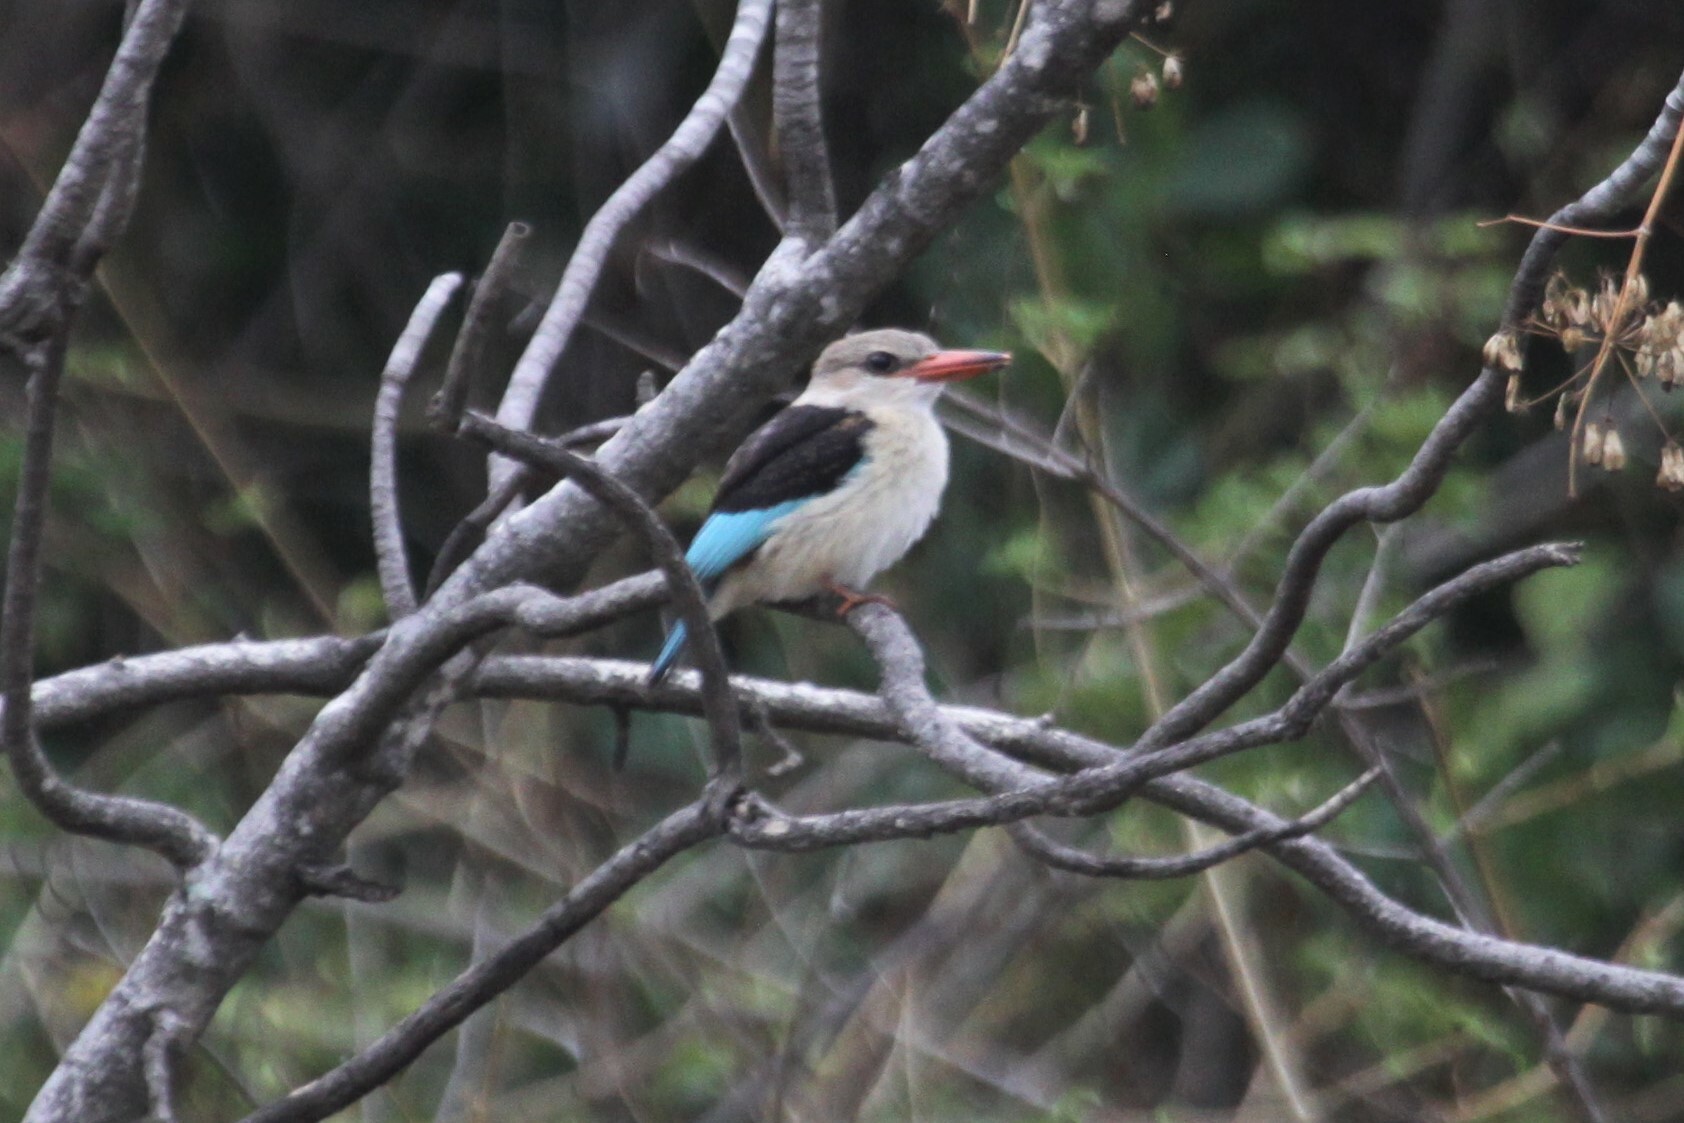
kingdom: Animalia
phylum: Chordata
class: Aves
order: Coraciiformes
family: Alcedinidae
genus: Halcyon
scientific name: Halcyon albiventris
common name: Brown-hooded kingfisher
